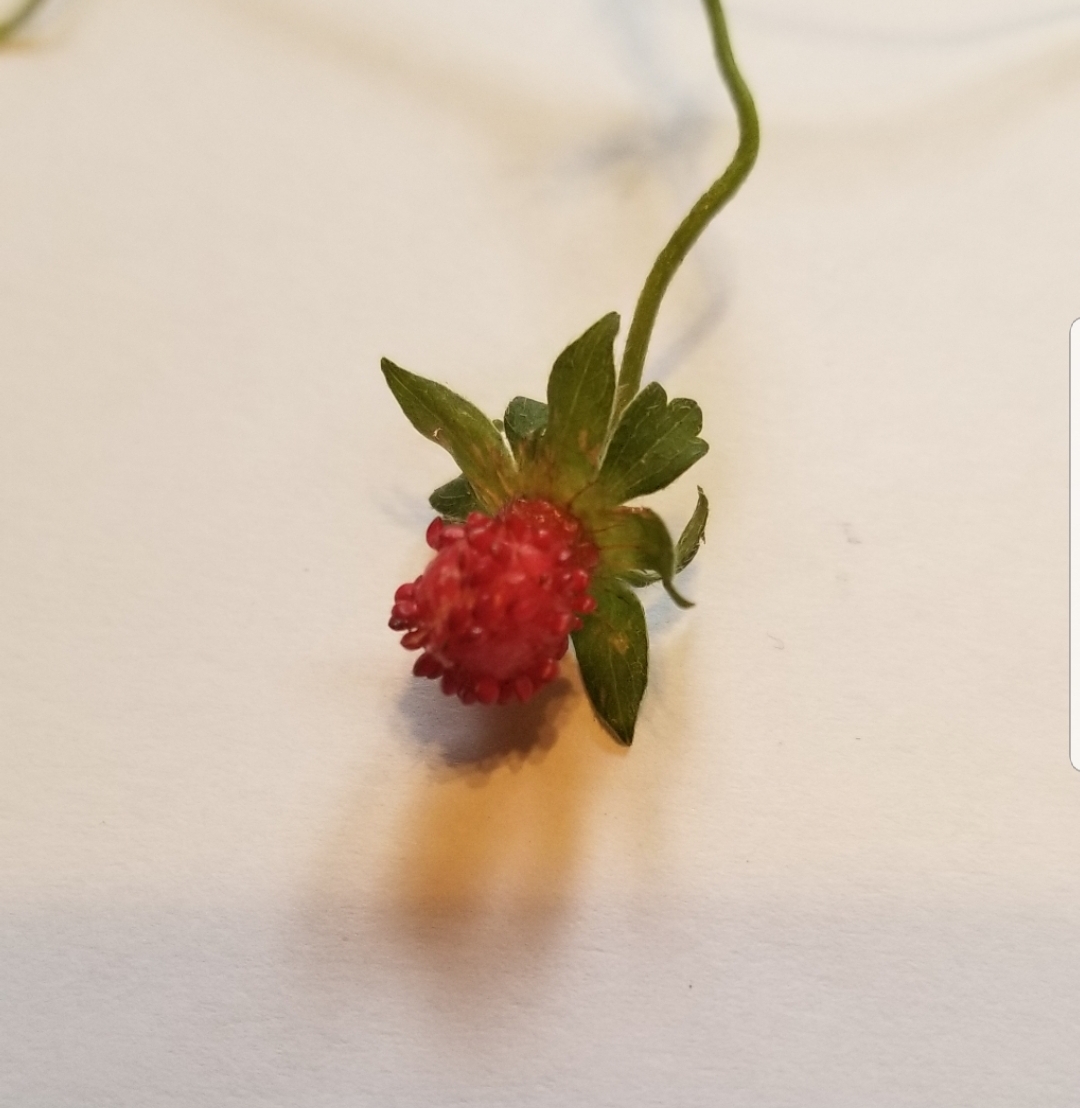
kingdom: Plantae
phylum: Tracheophyta
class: Magnoliopsida
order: Rosales
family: Rosaceae
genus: Potentilla
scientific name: Potentilla indica
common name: Yellow-flowered strawberry
